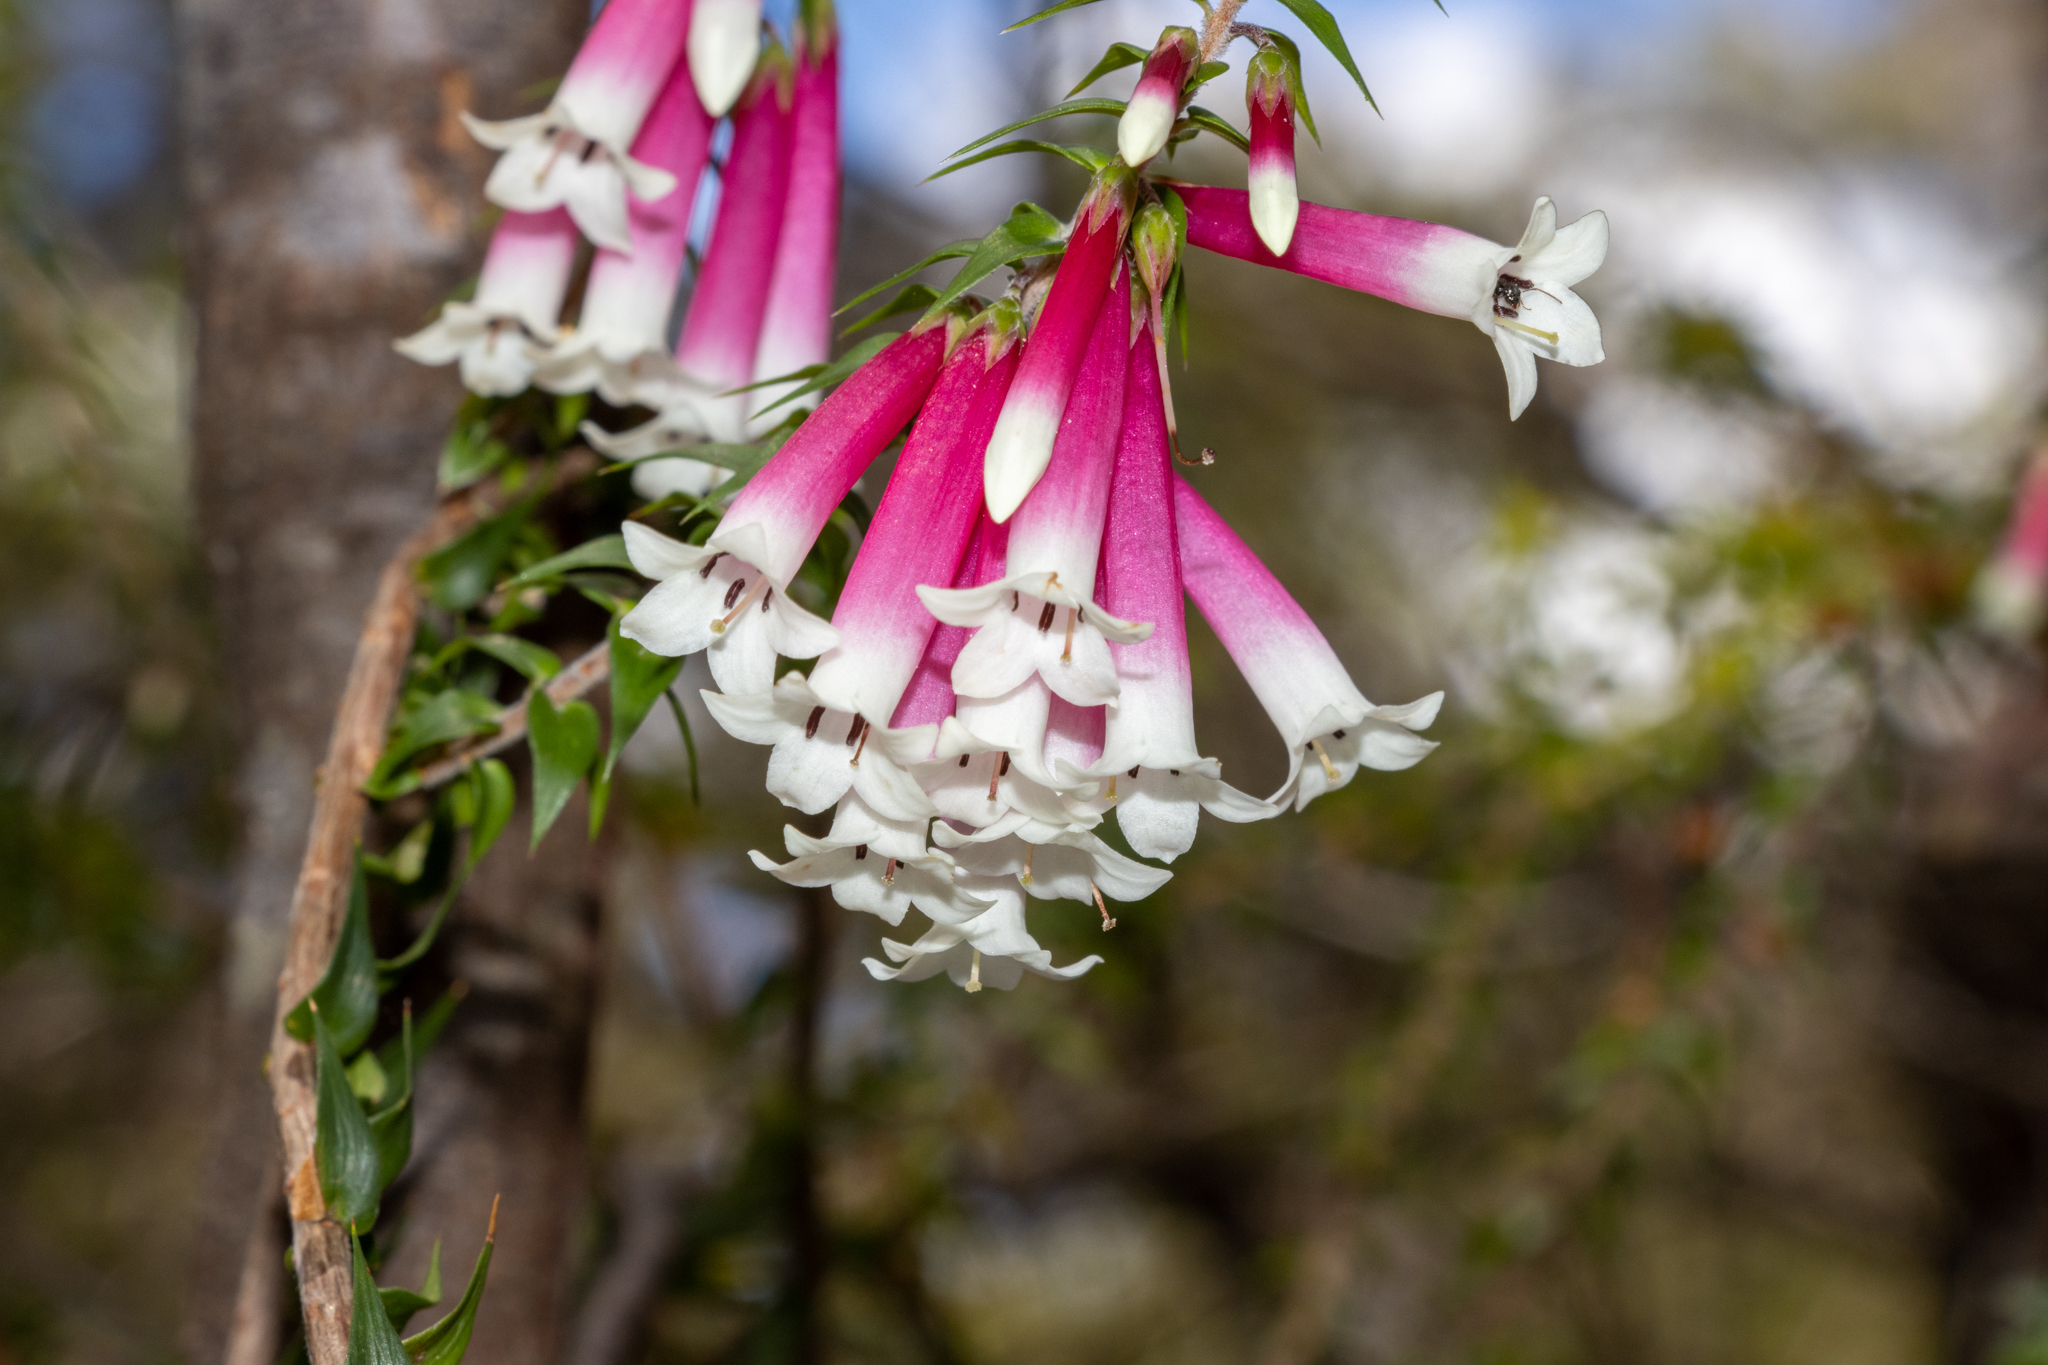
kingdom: Plantae
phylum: Tracheophyta
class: Magnoliopsida
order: Ericales
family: Ericaceae
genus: Epacris
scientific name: Epacris longiflora
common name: Fuchsia-heath
